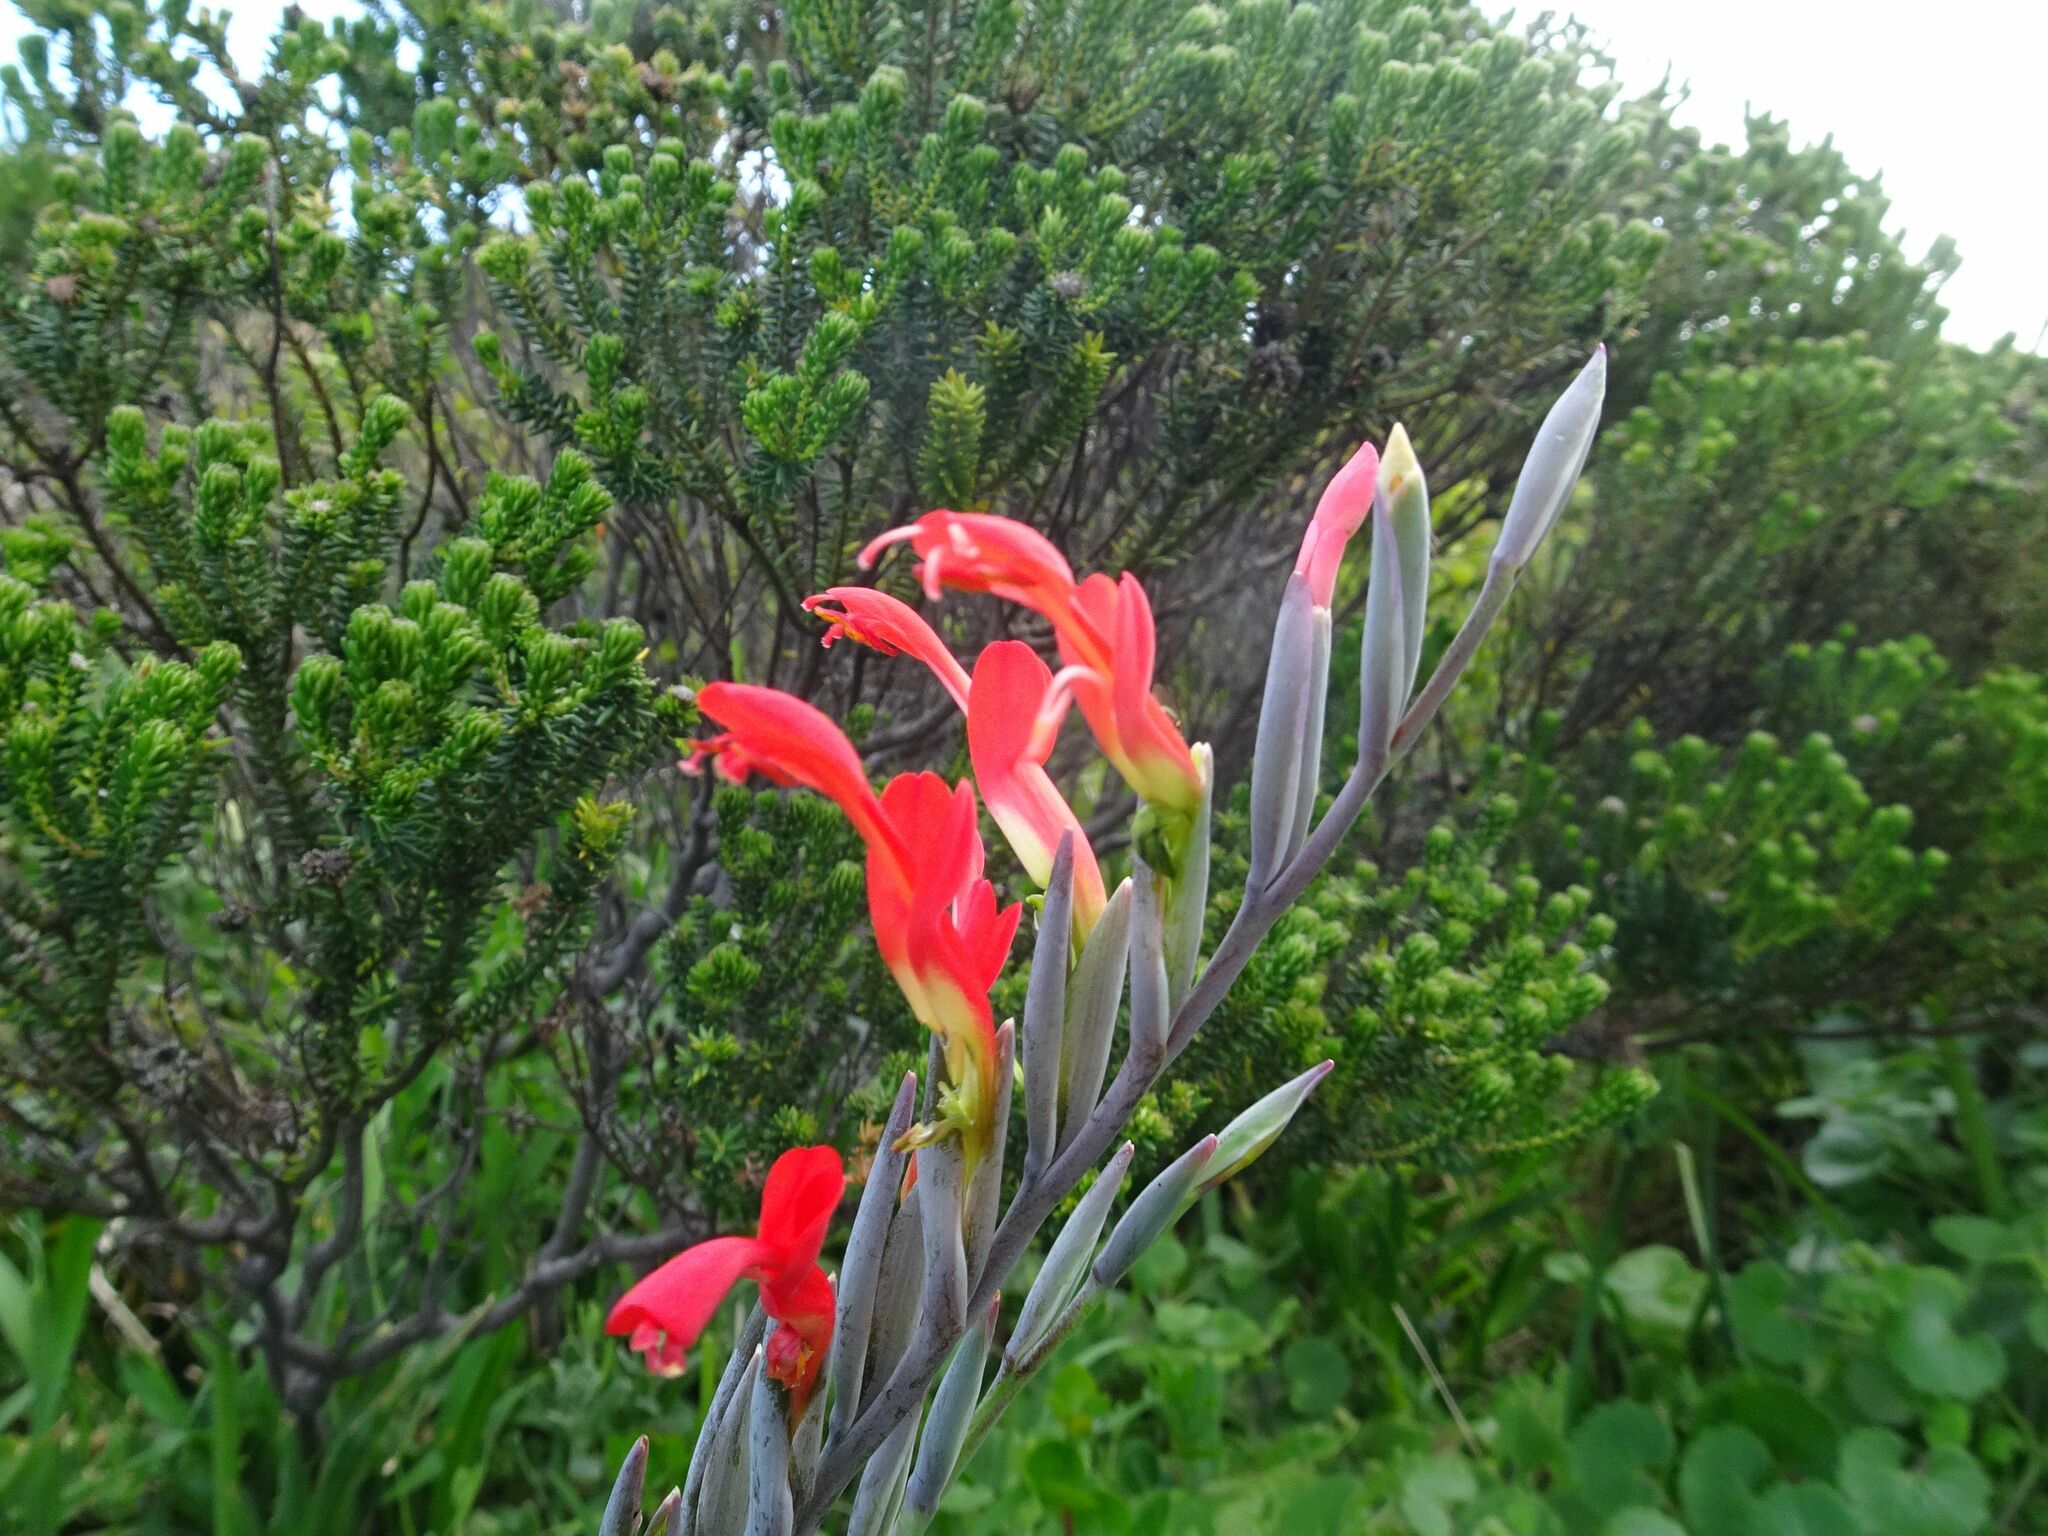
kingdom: Plantae
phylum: Tracheophyta
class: Liliopsida
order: Asparagales
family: Iridaceae
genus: Gladiolus
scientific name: Gladiolus cunonius
